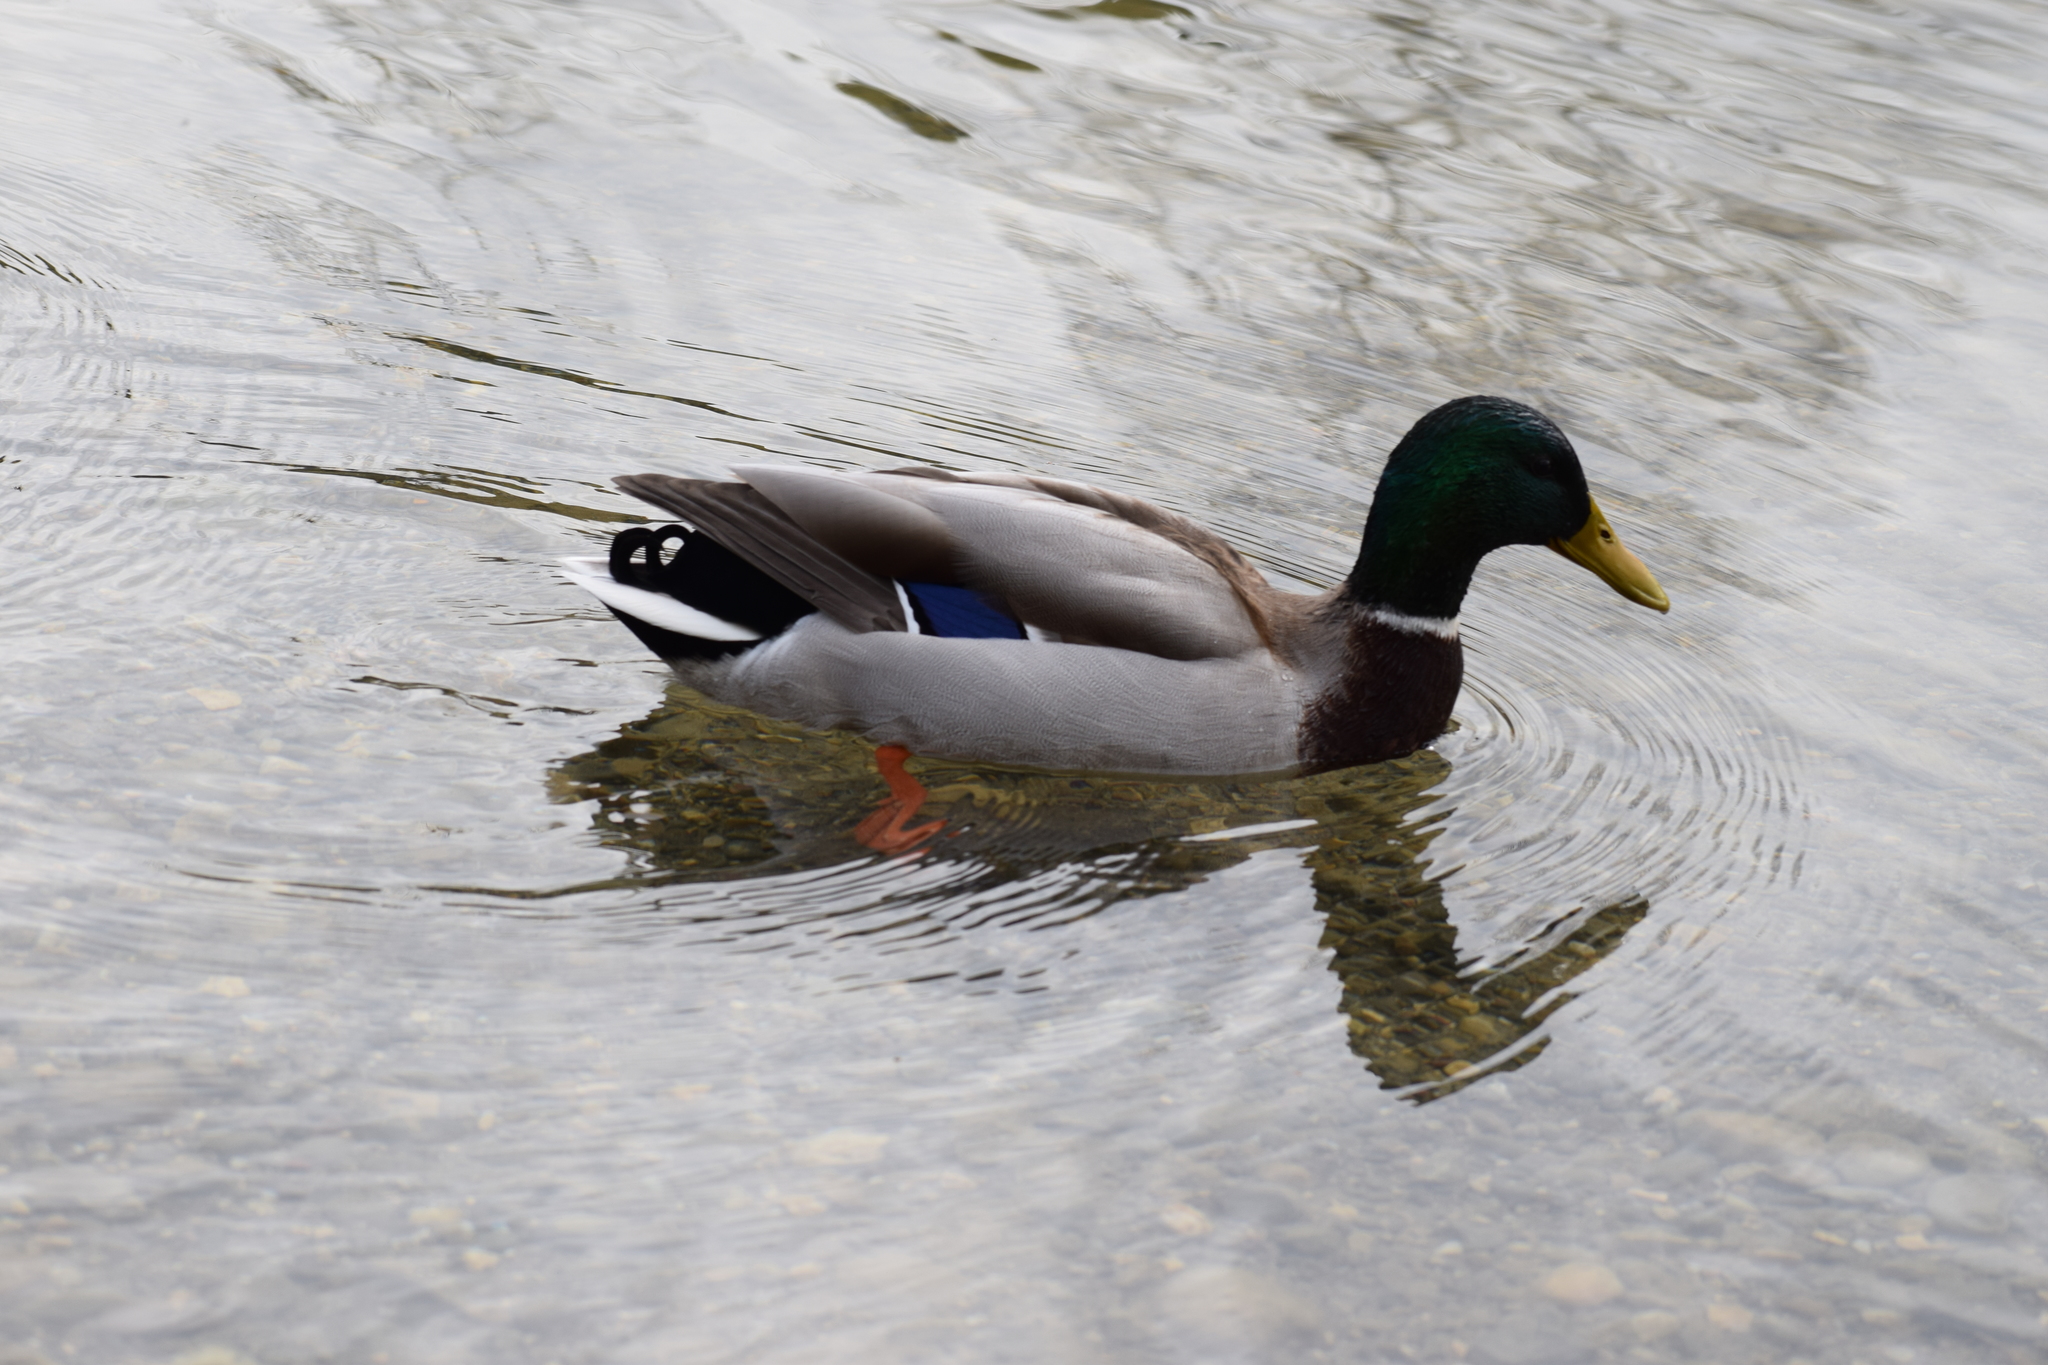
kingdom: Animalia
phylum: Chordata
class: Aves
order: Anseriformes
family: Anatidae
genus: Anas
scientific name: Anas platyrhynchos
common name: Mallard
